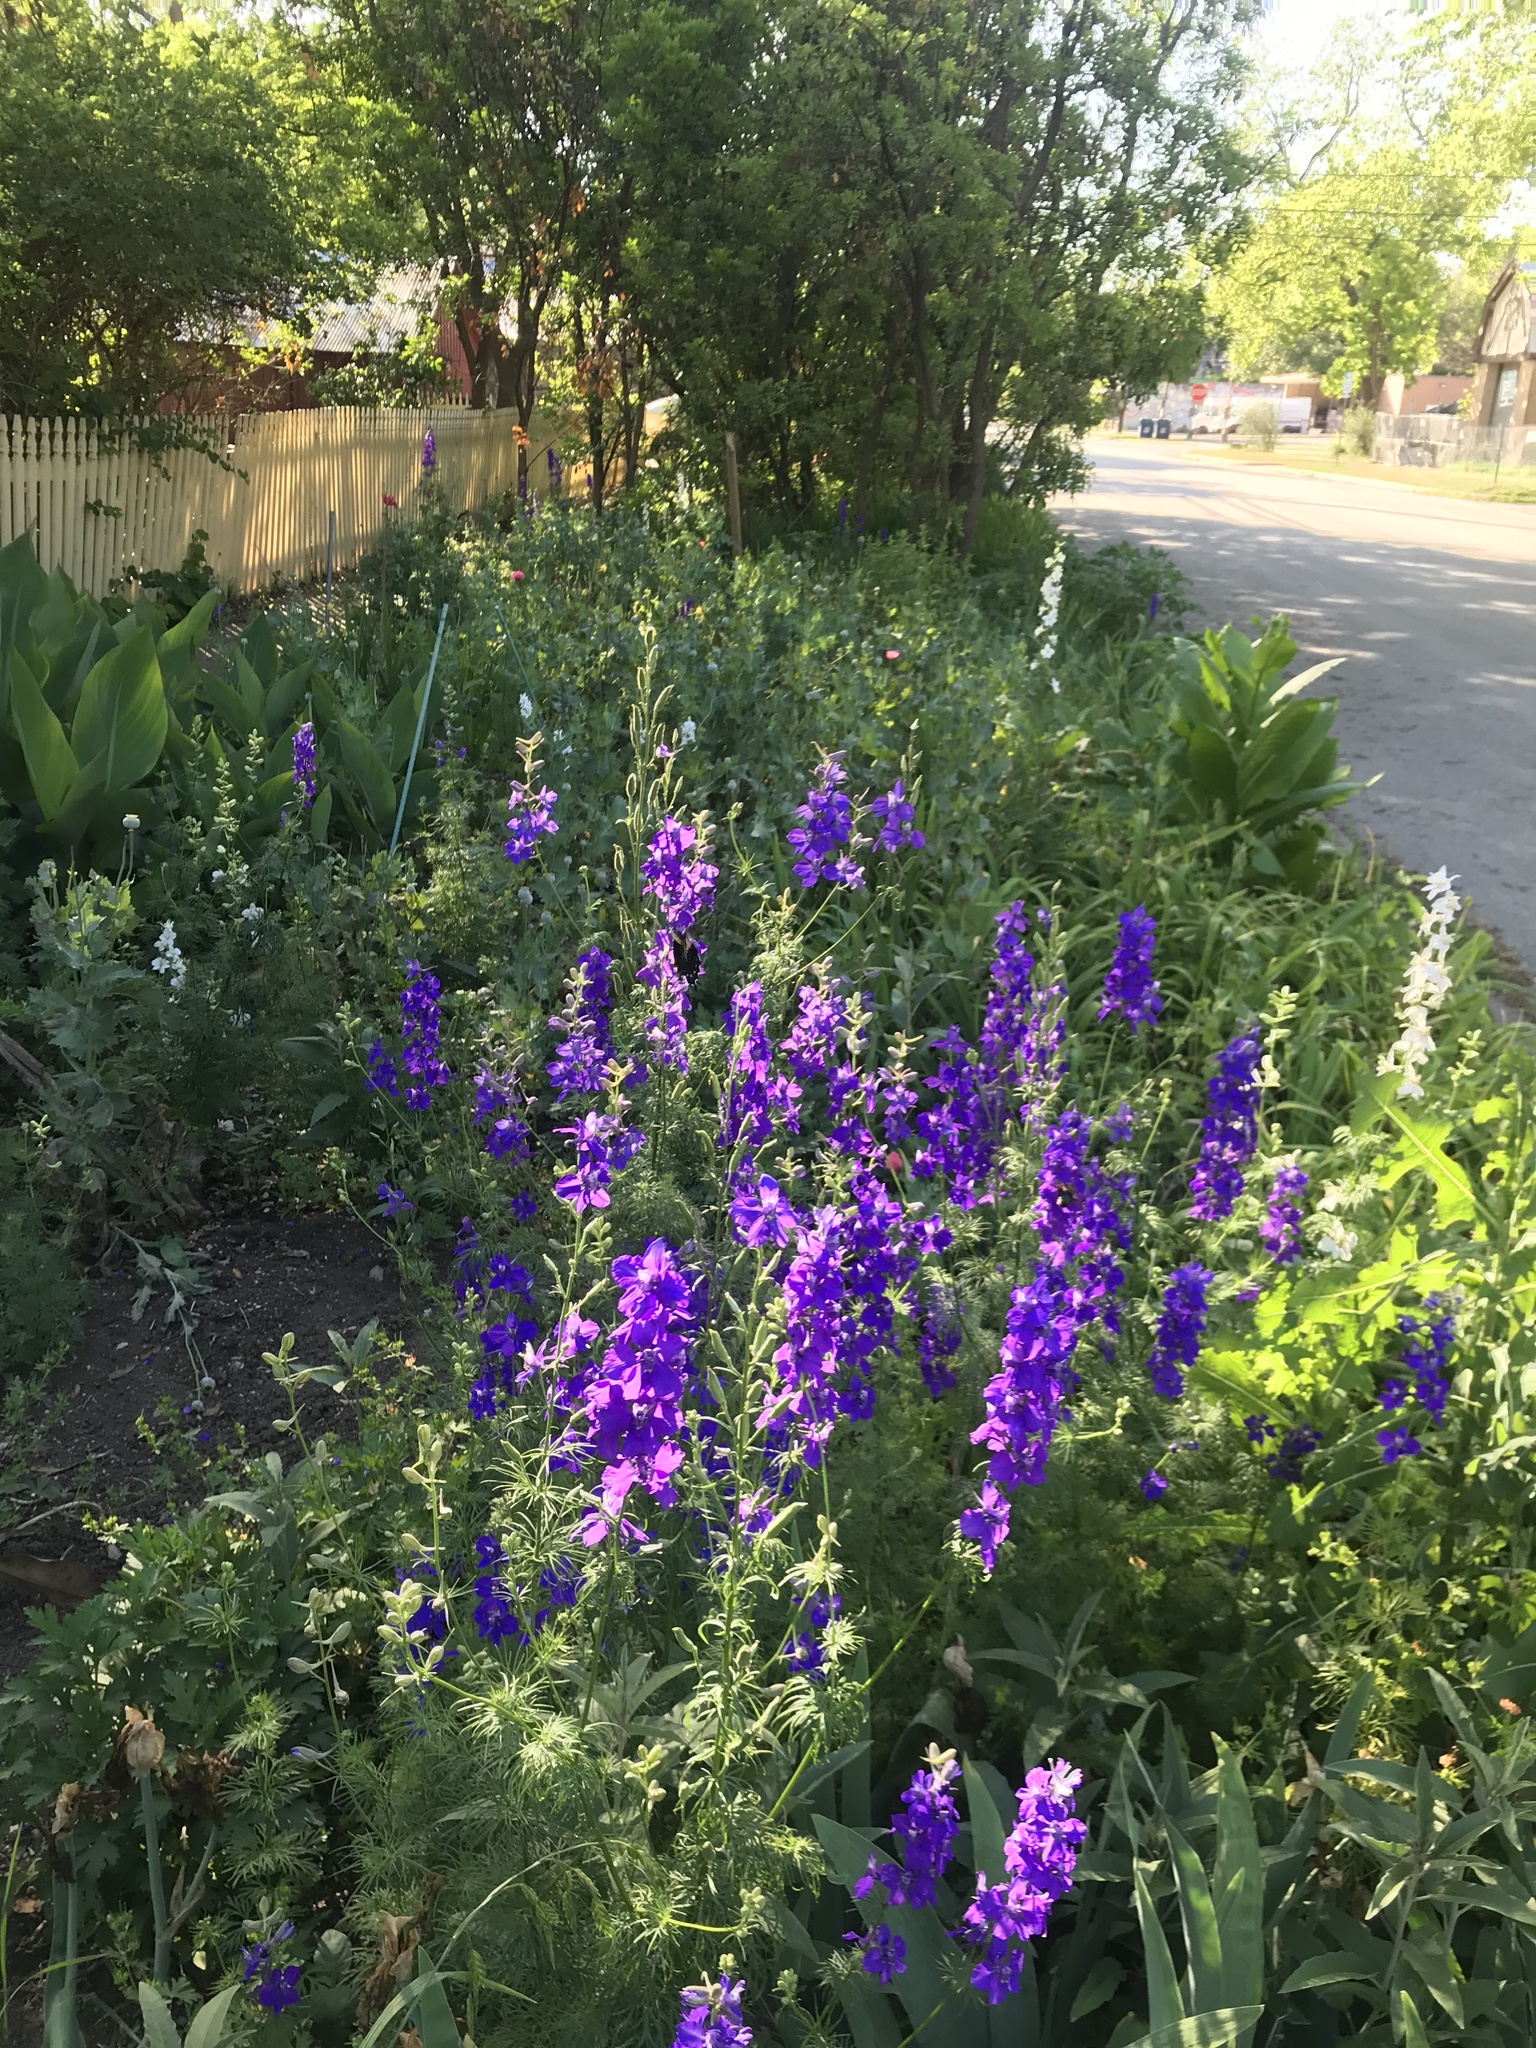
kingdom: Animalia
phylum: Arthropoda
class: Insecta
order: Lepidoptera
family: Papilionidae
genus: Battus
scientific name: Battus philenor
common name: Pipevine swallowtail
